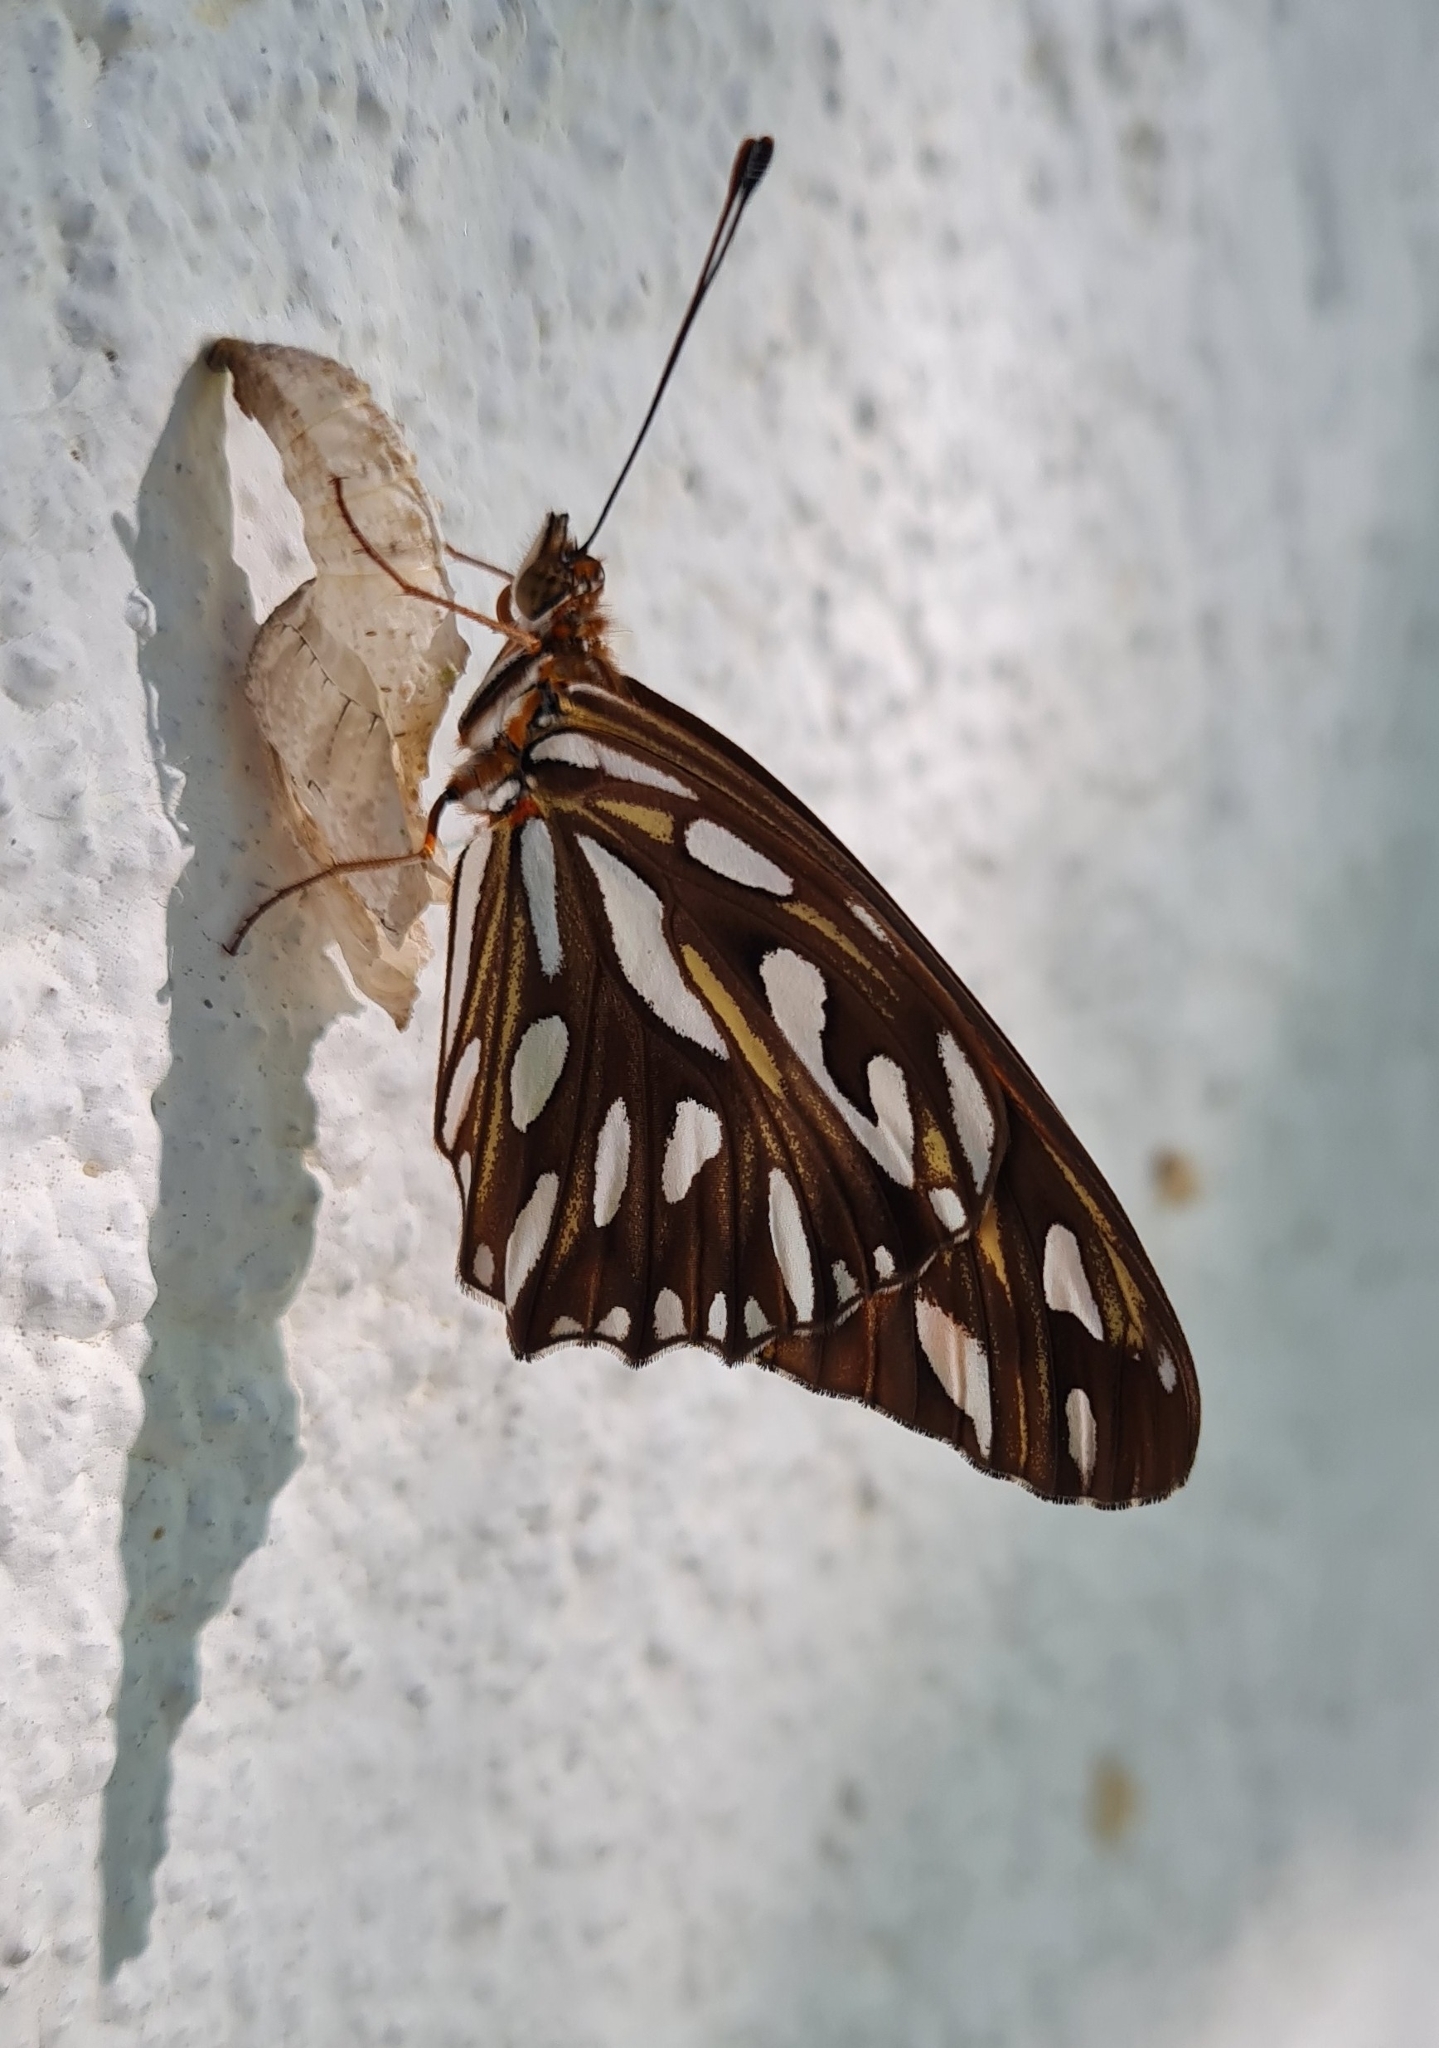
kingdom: Animalia
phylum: Arthropoda
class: Insecta
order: Lepidoptera
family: Nymphalidae
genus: Dione
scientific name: Dione vanillae
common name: Gulf fritillary
